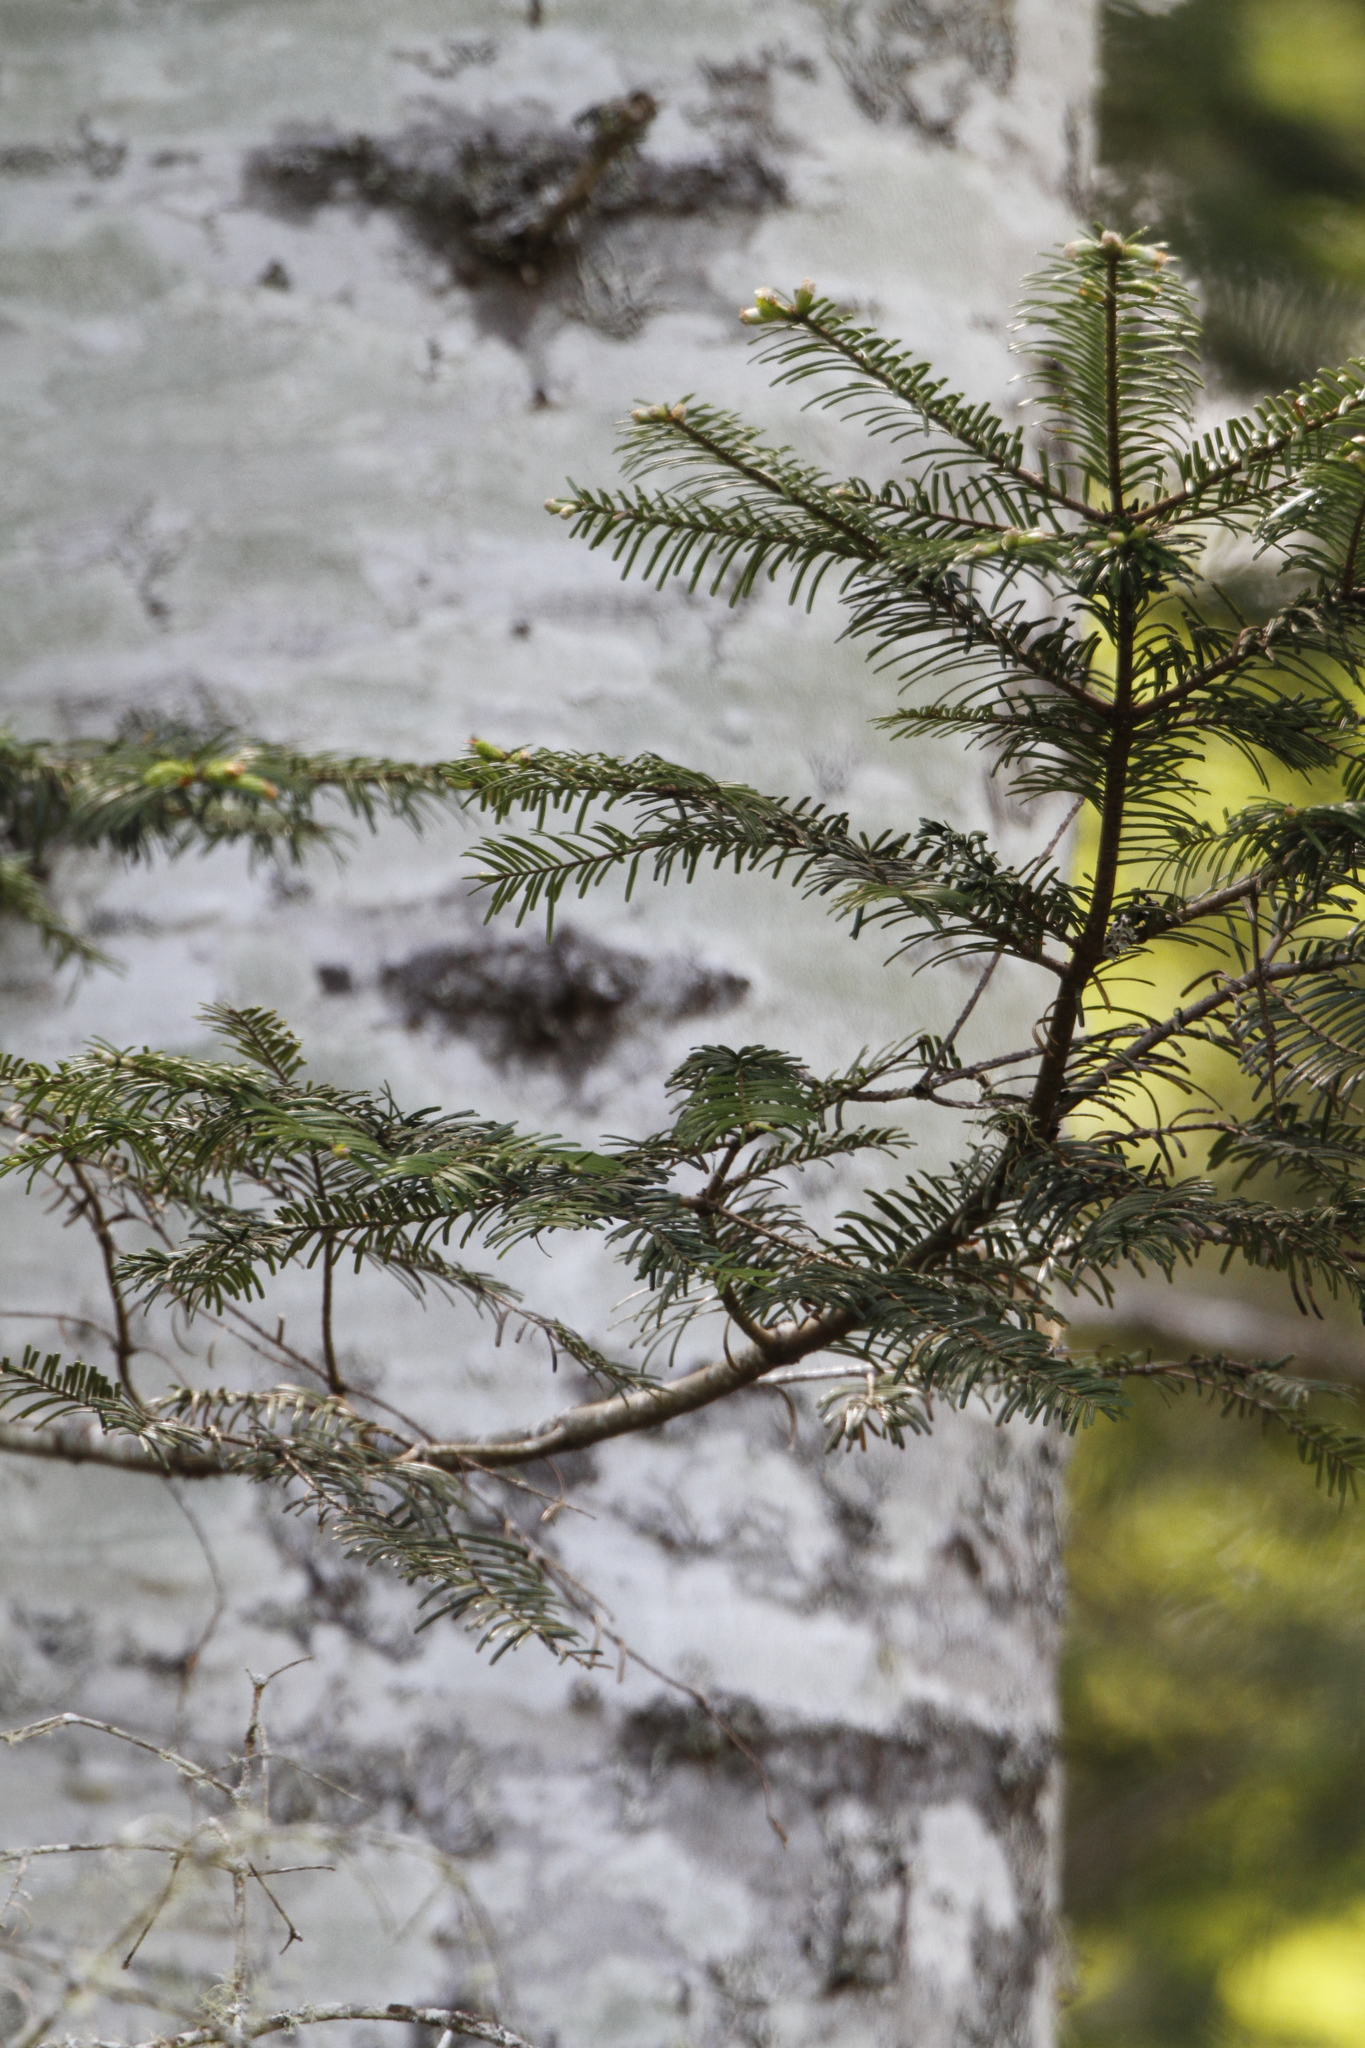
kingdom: Plantae
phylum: Tracheophyta
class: Pinopsida
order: Pinales
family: Pinaceae
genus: Abies
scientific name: Abies grandis
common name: Giant fir
